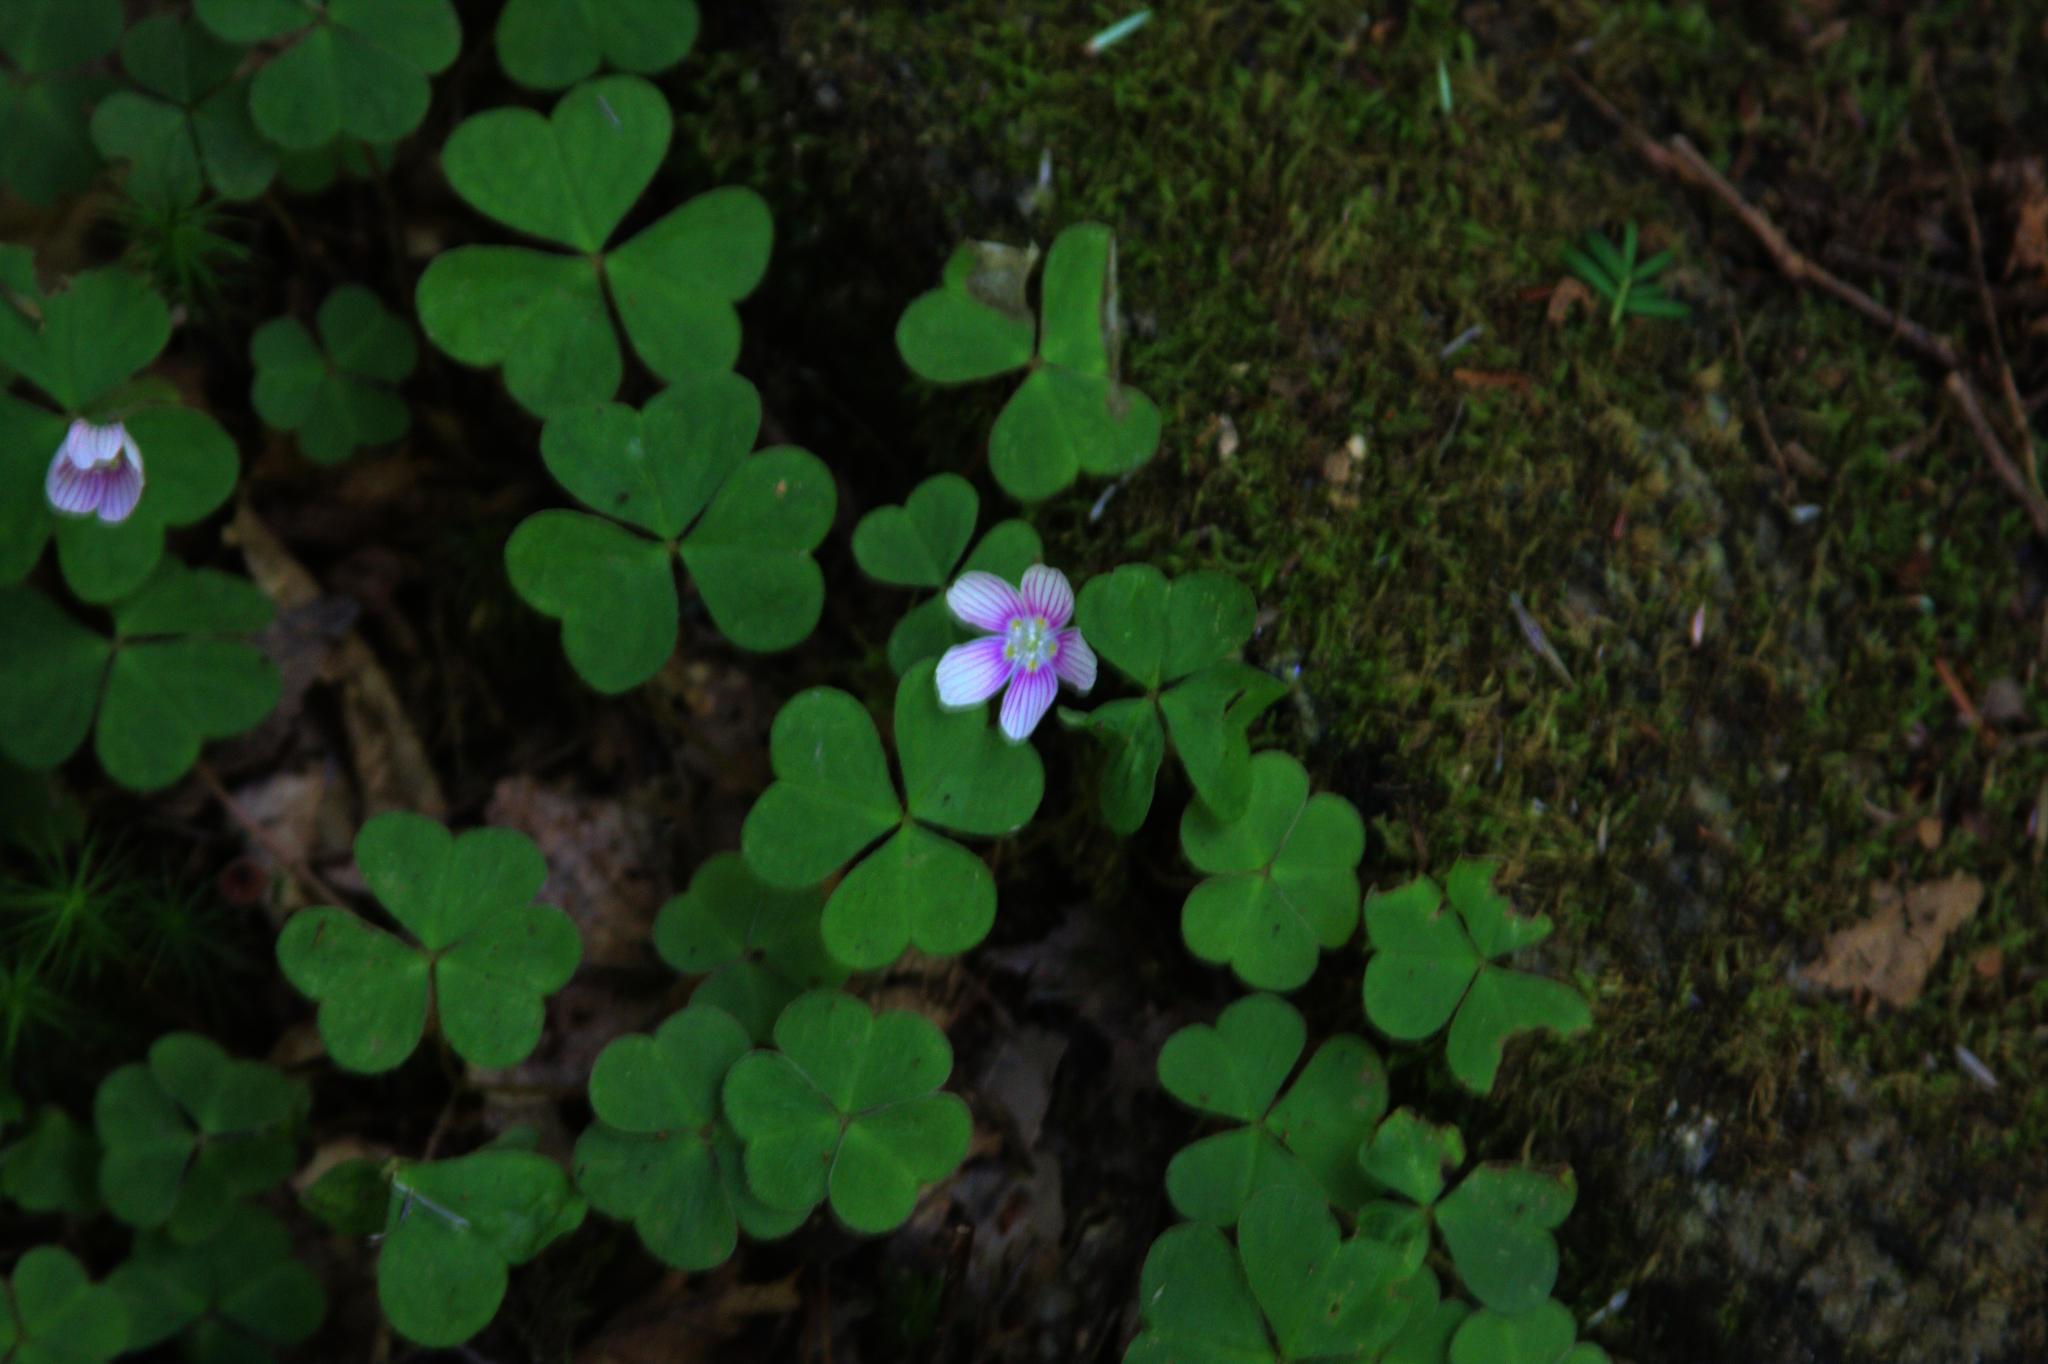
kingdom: Plantae
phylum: Tracheophyta
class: Magnoliopsida
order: Oxalidales
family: Oxalidaceae
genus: Oxalis
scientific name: Oxalis montana
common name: American wood-sorrel
